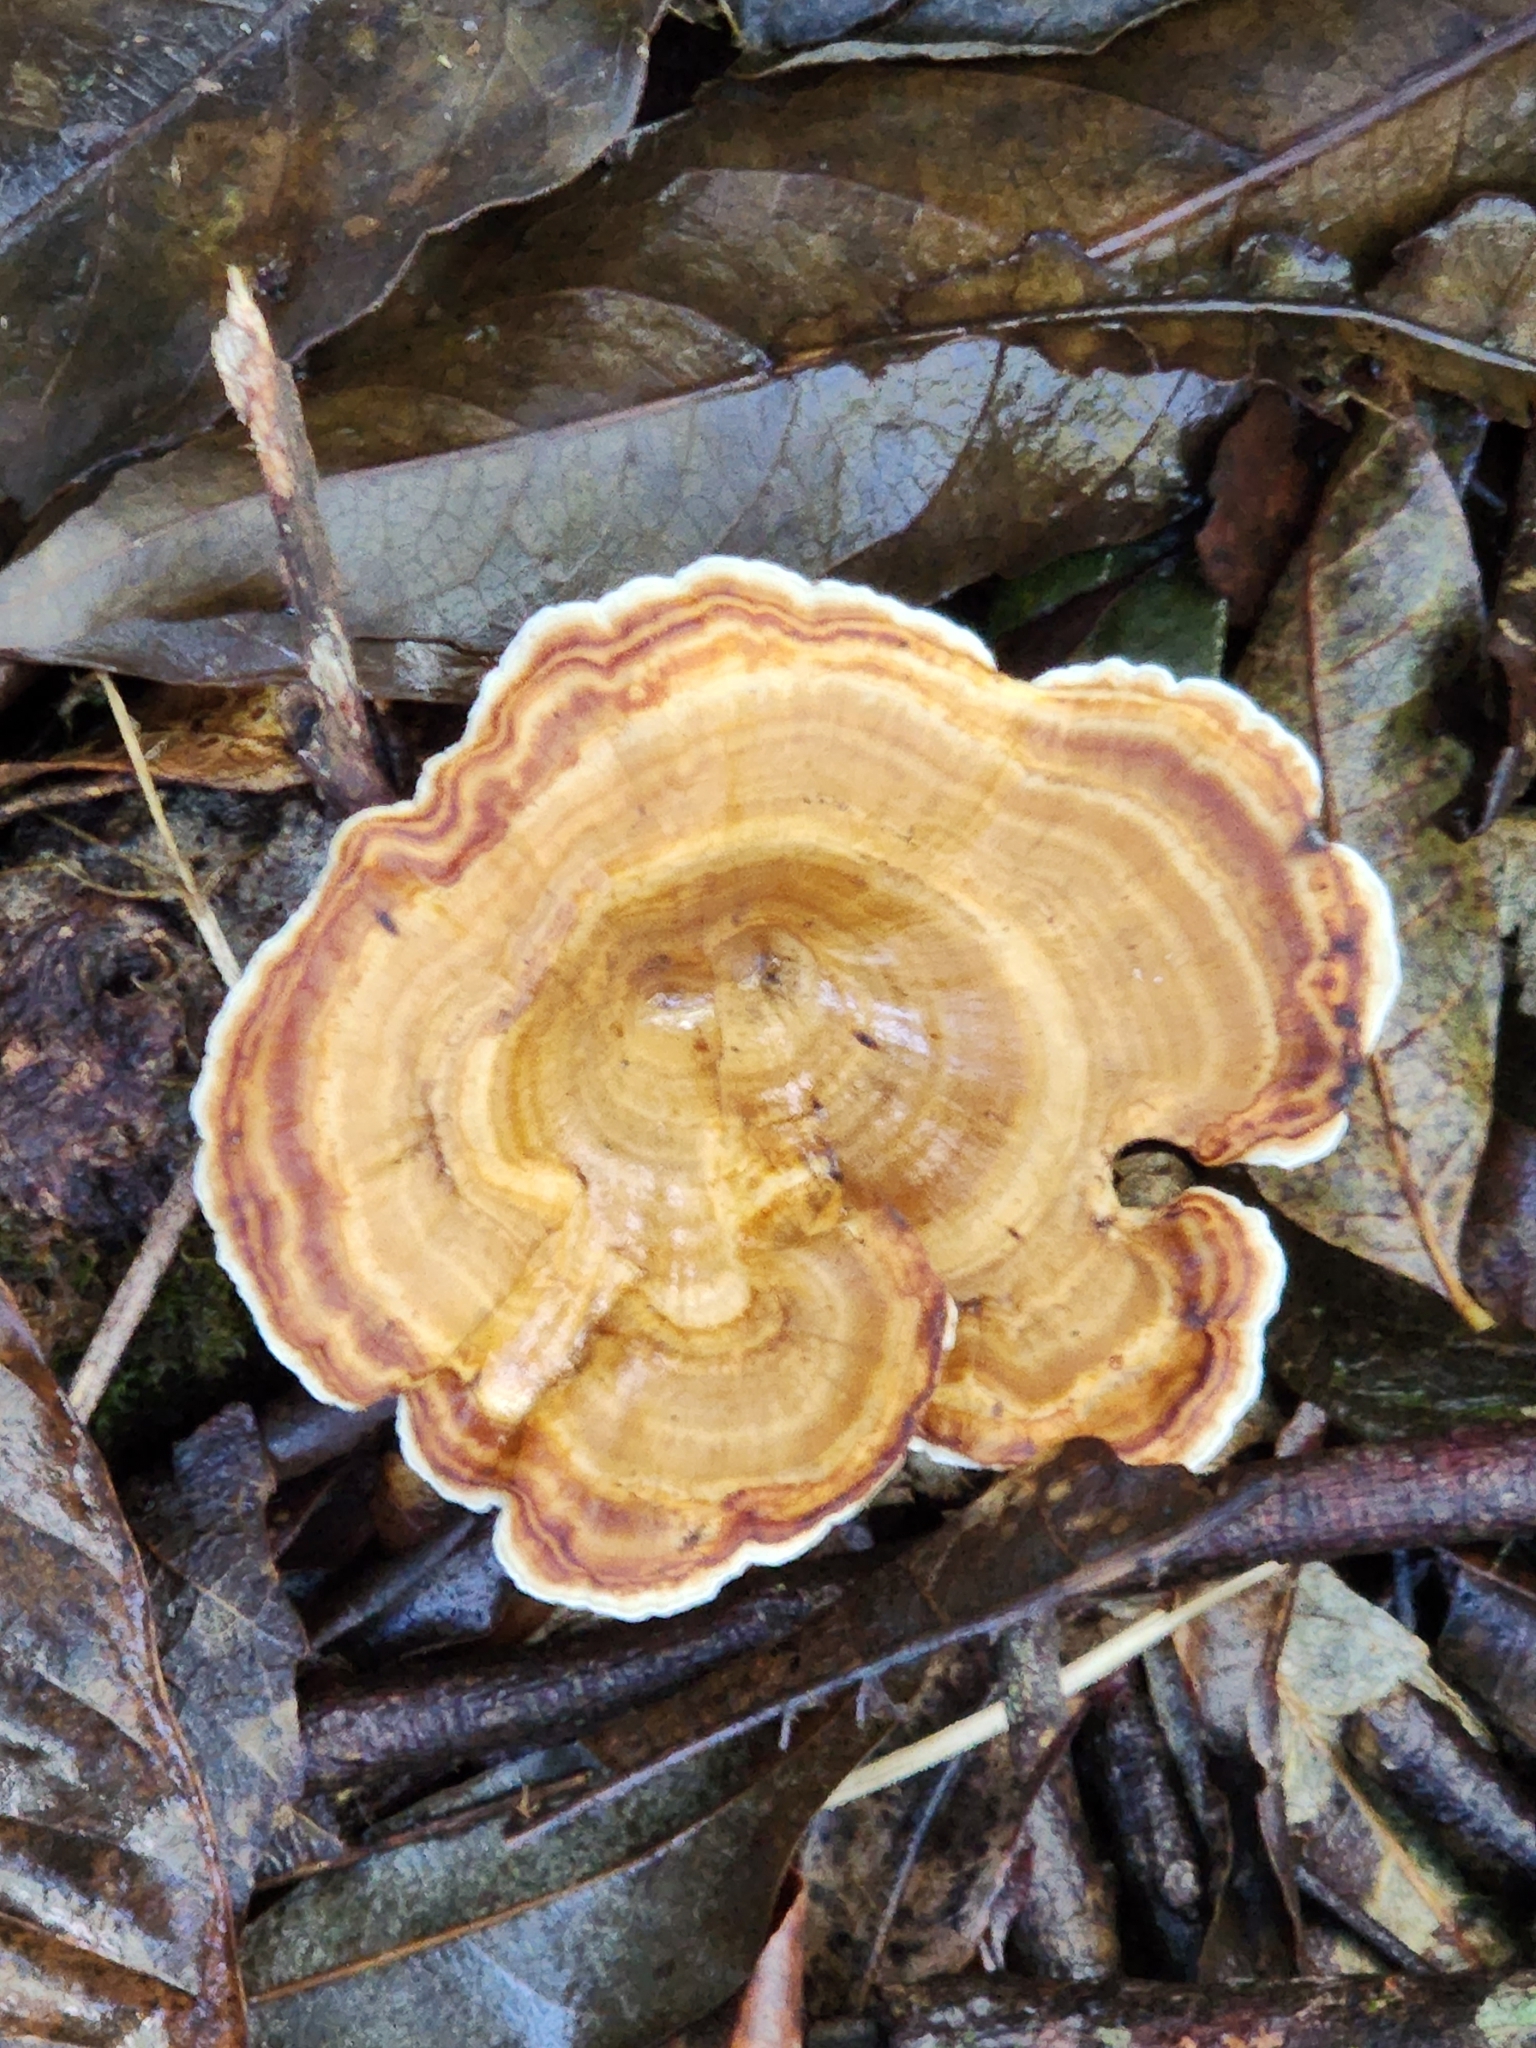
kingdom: Fungi
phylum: Basidiomycota
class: Agaricomycetes
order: Polyporales
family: Polyporaceae
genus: Microporus
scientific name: Microporus xanthopus
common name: Yellow-stemmed micropore
